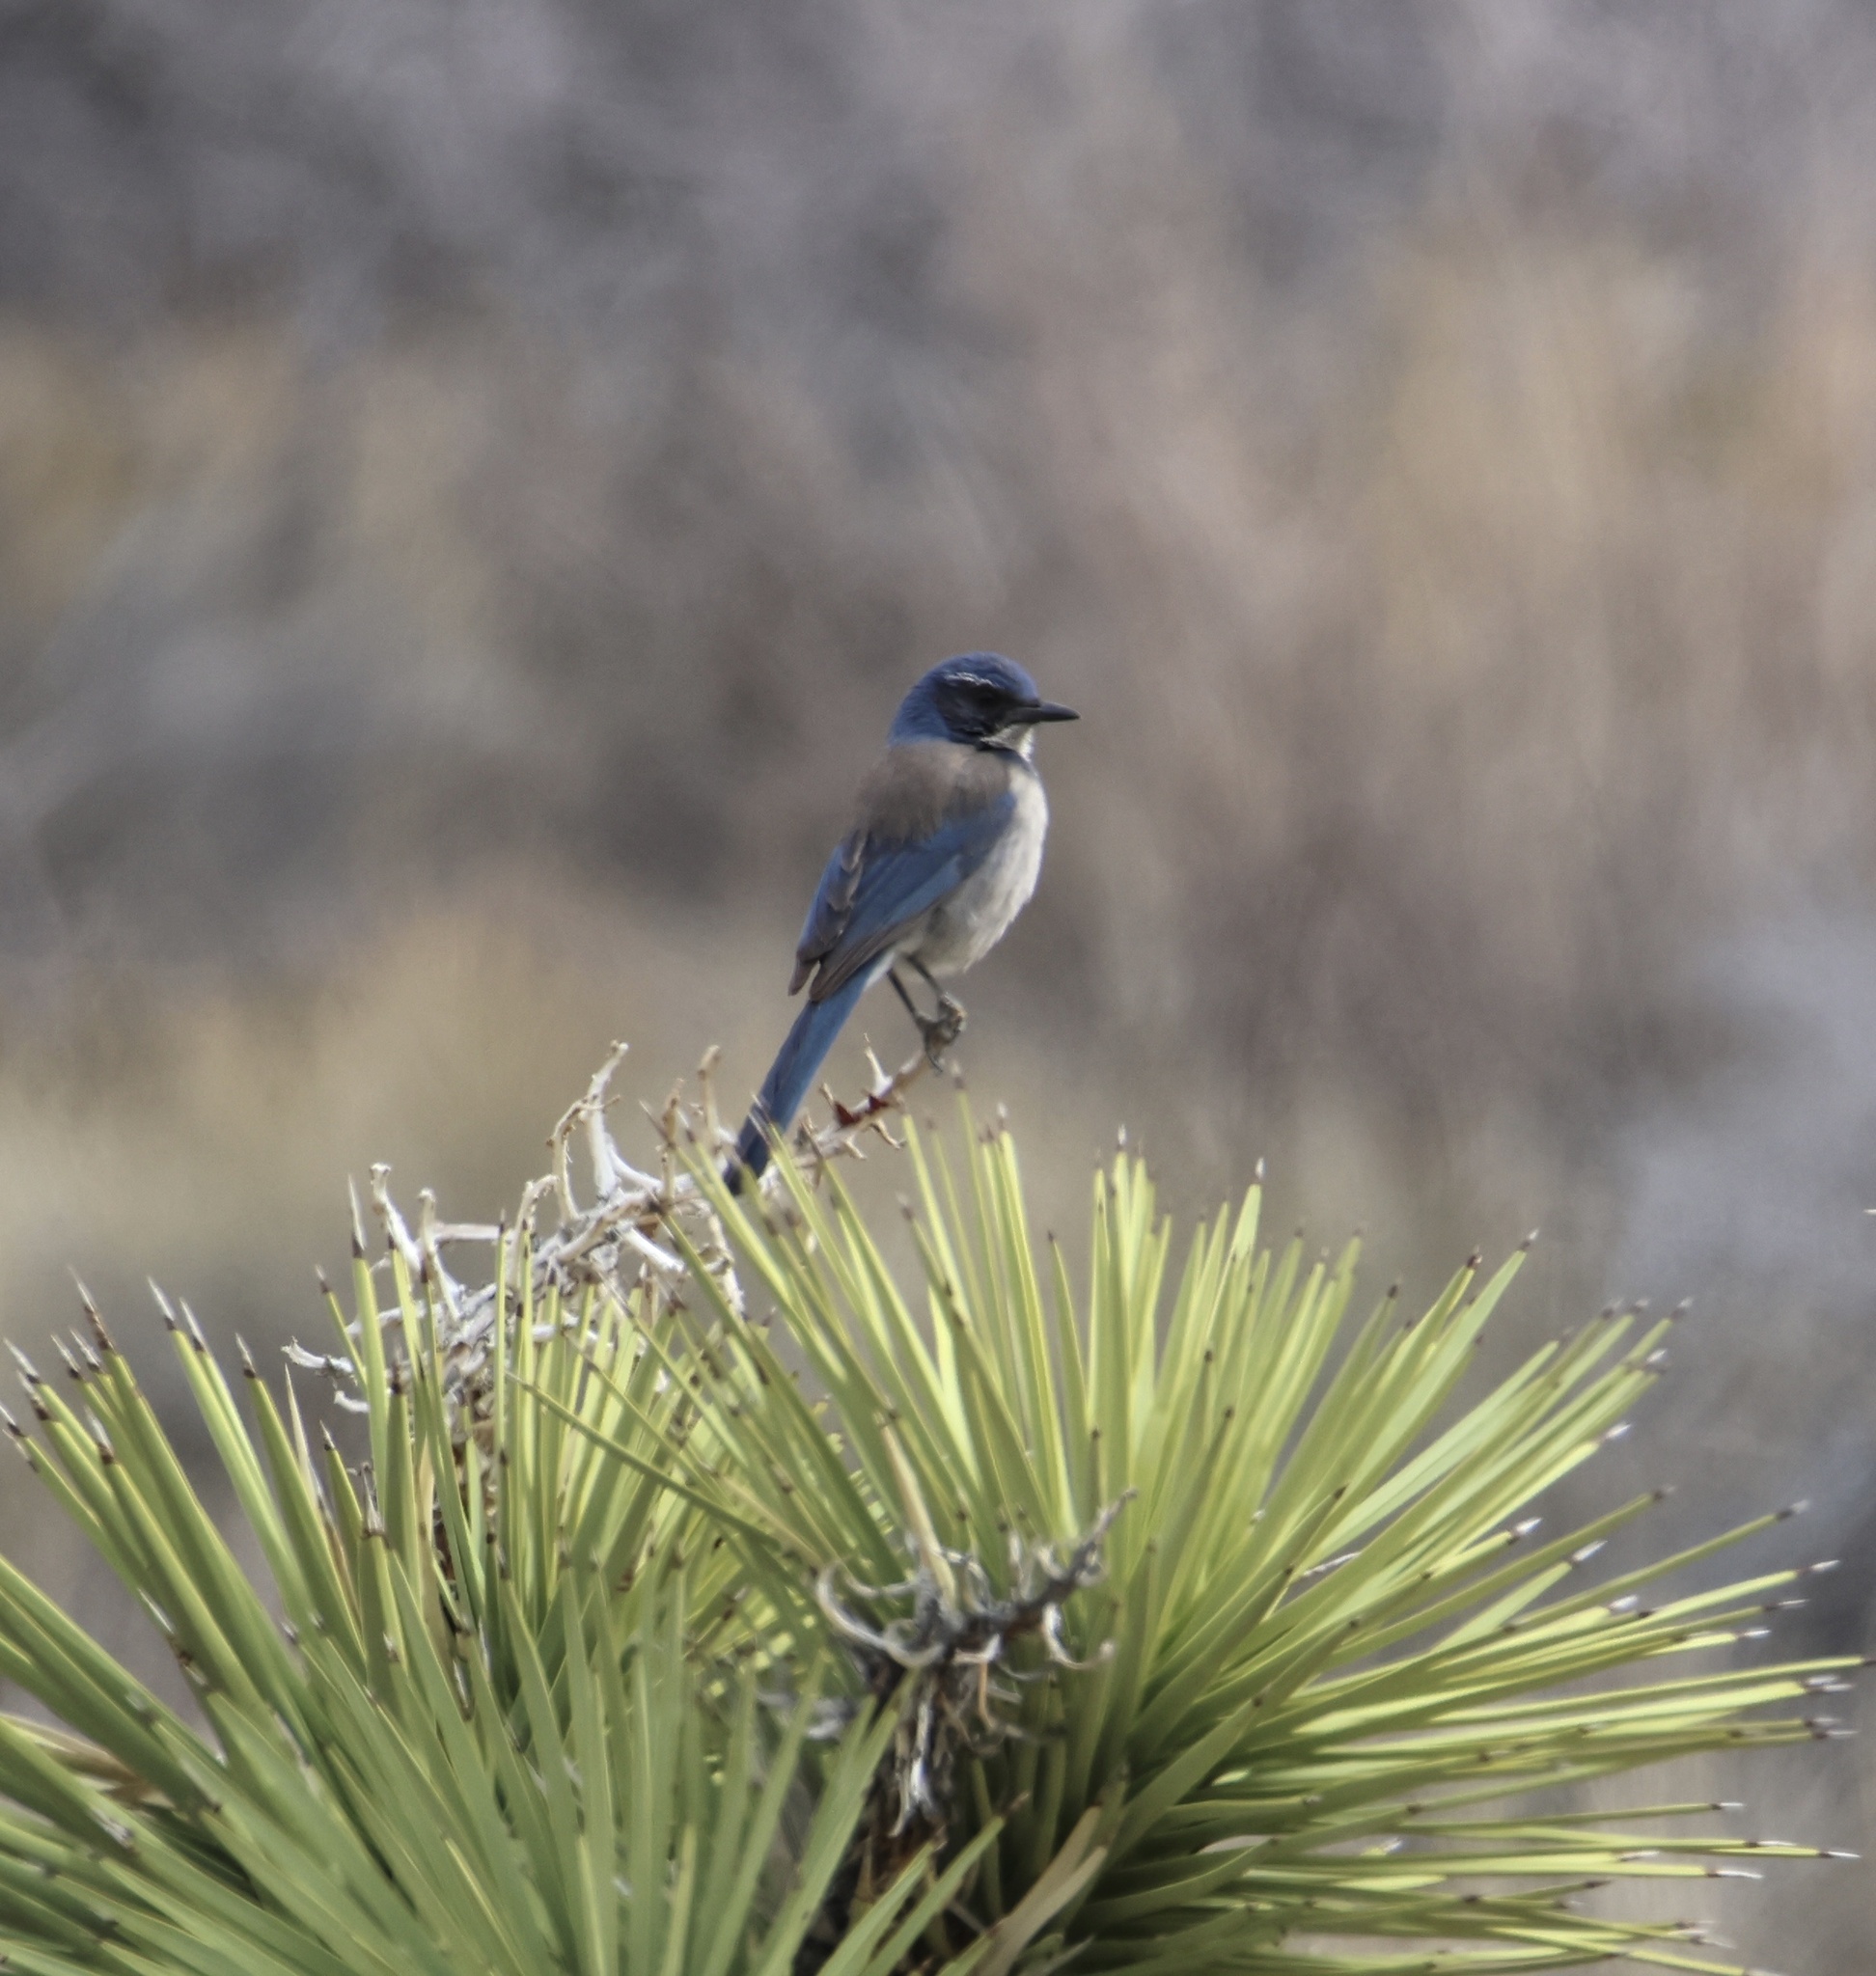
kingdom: Animalia
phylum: Chordata
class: Aves
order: Passeriformes
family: Corvidae
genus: Aphelocoma
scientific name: Aphelocoma californica
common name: California scrub-jay
